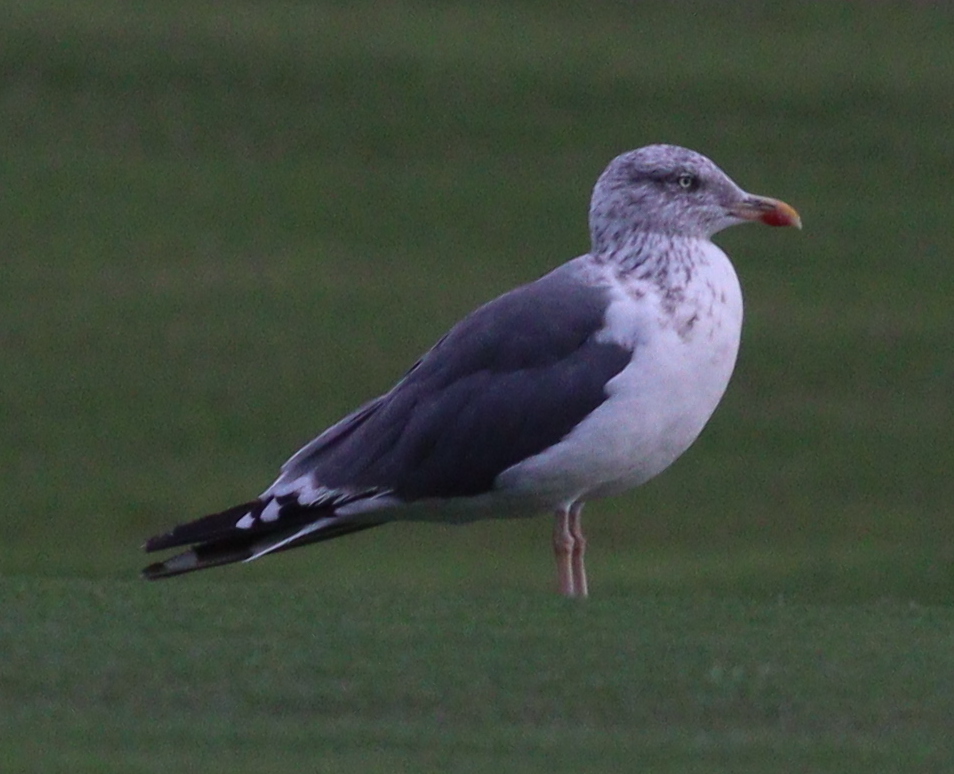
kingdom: Animalia
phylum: Chordata
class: Aves
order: Charadriiformes
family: Laridae
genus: Larus
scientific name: Larus fuscus
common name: Lesser black-backed gull
